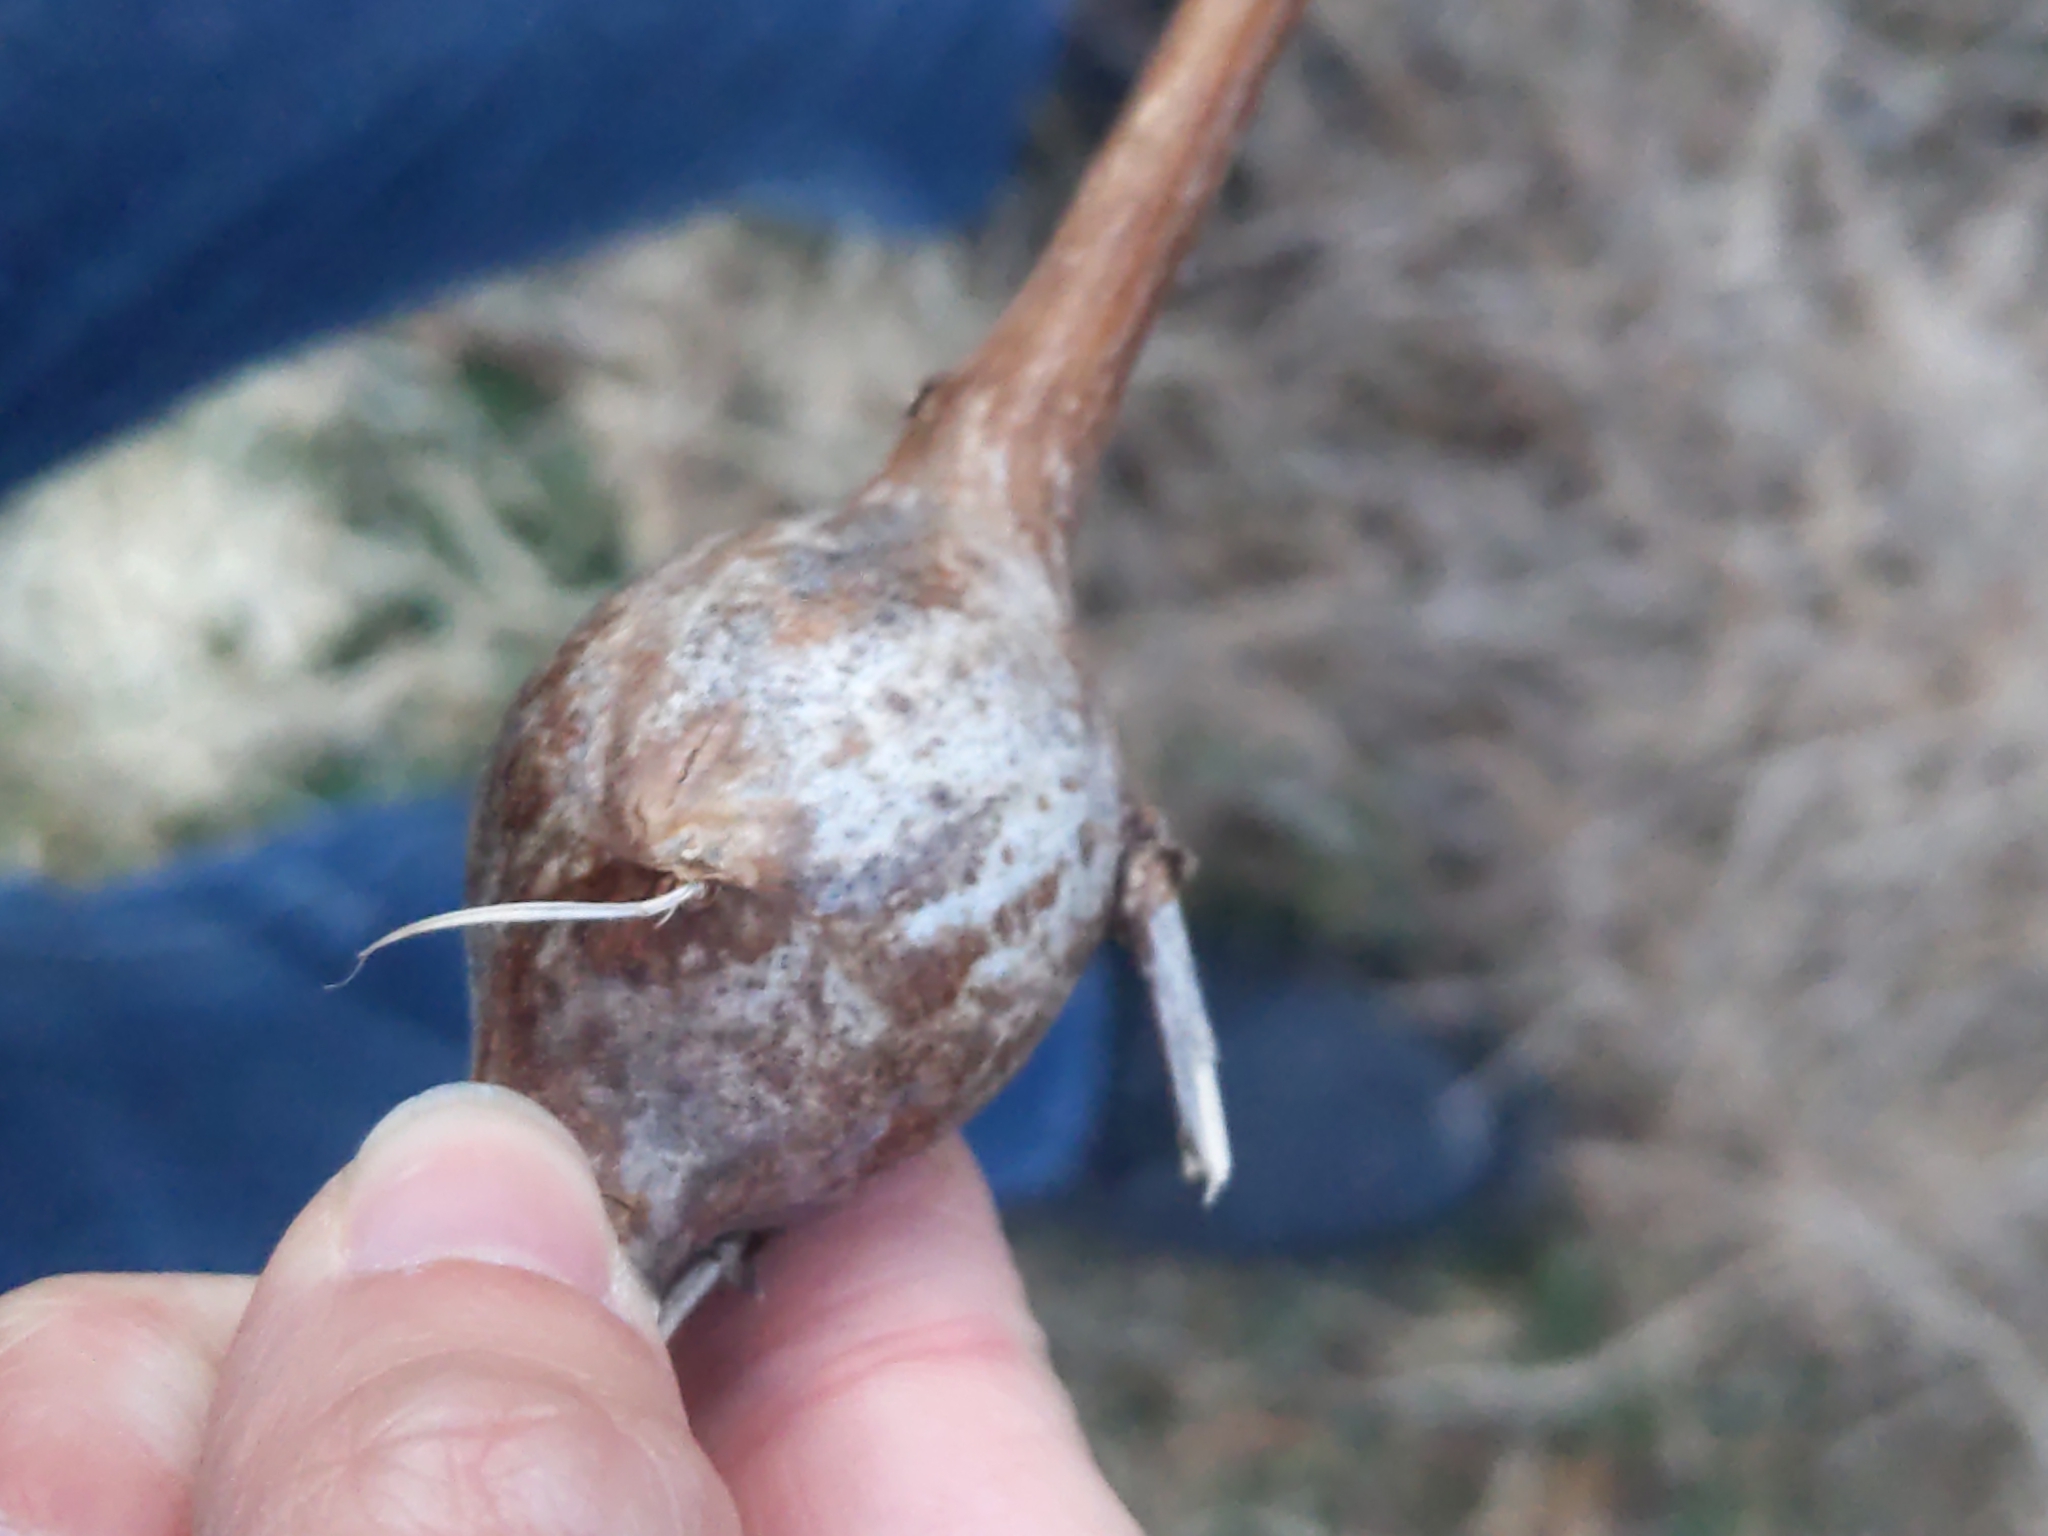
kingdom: Animalia
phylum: Arthropoda
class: Insecta
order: Diptera
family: Tephritidae
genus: Eurosta
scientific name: Eurosta solidaginis
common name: Goldenrod gall fly
